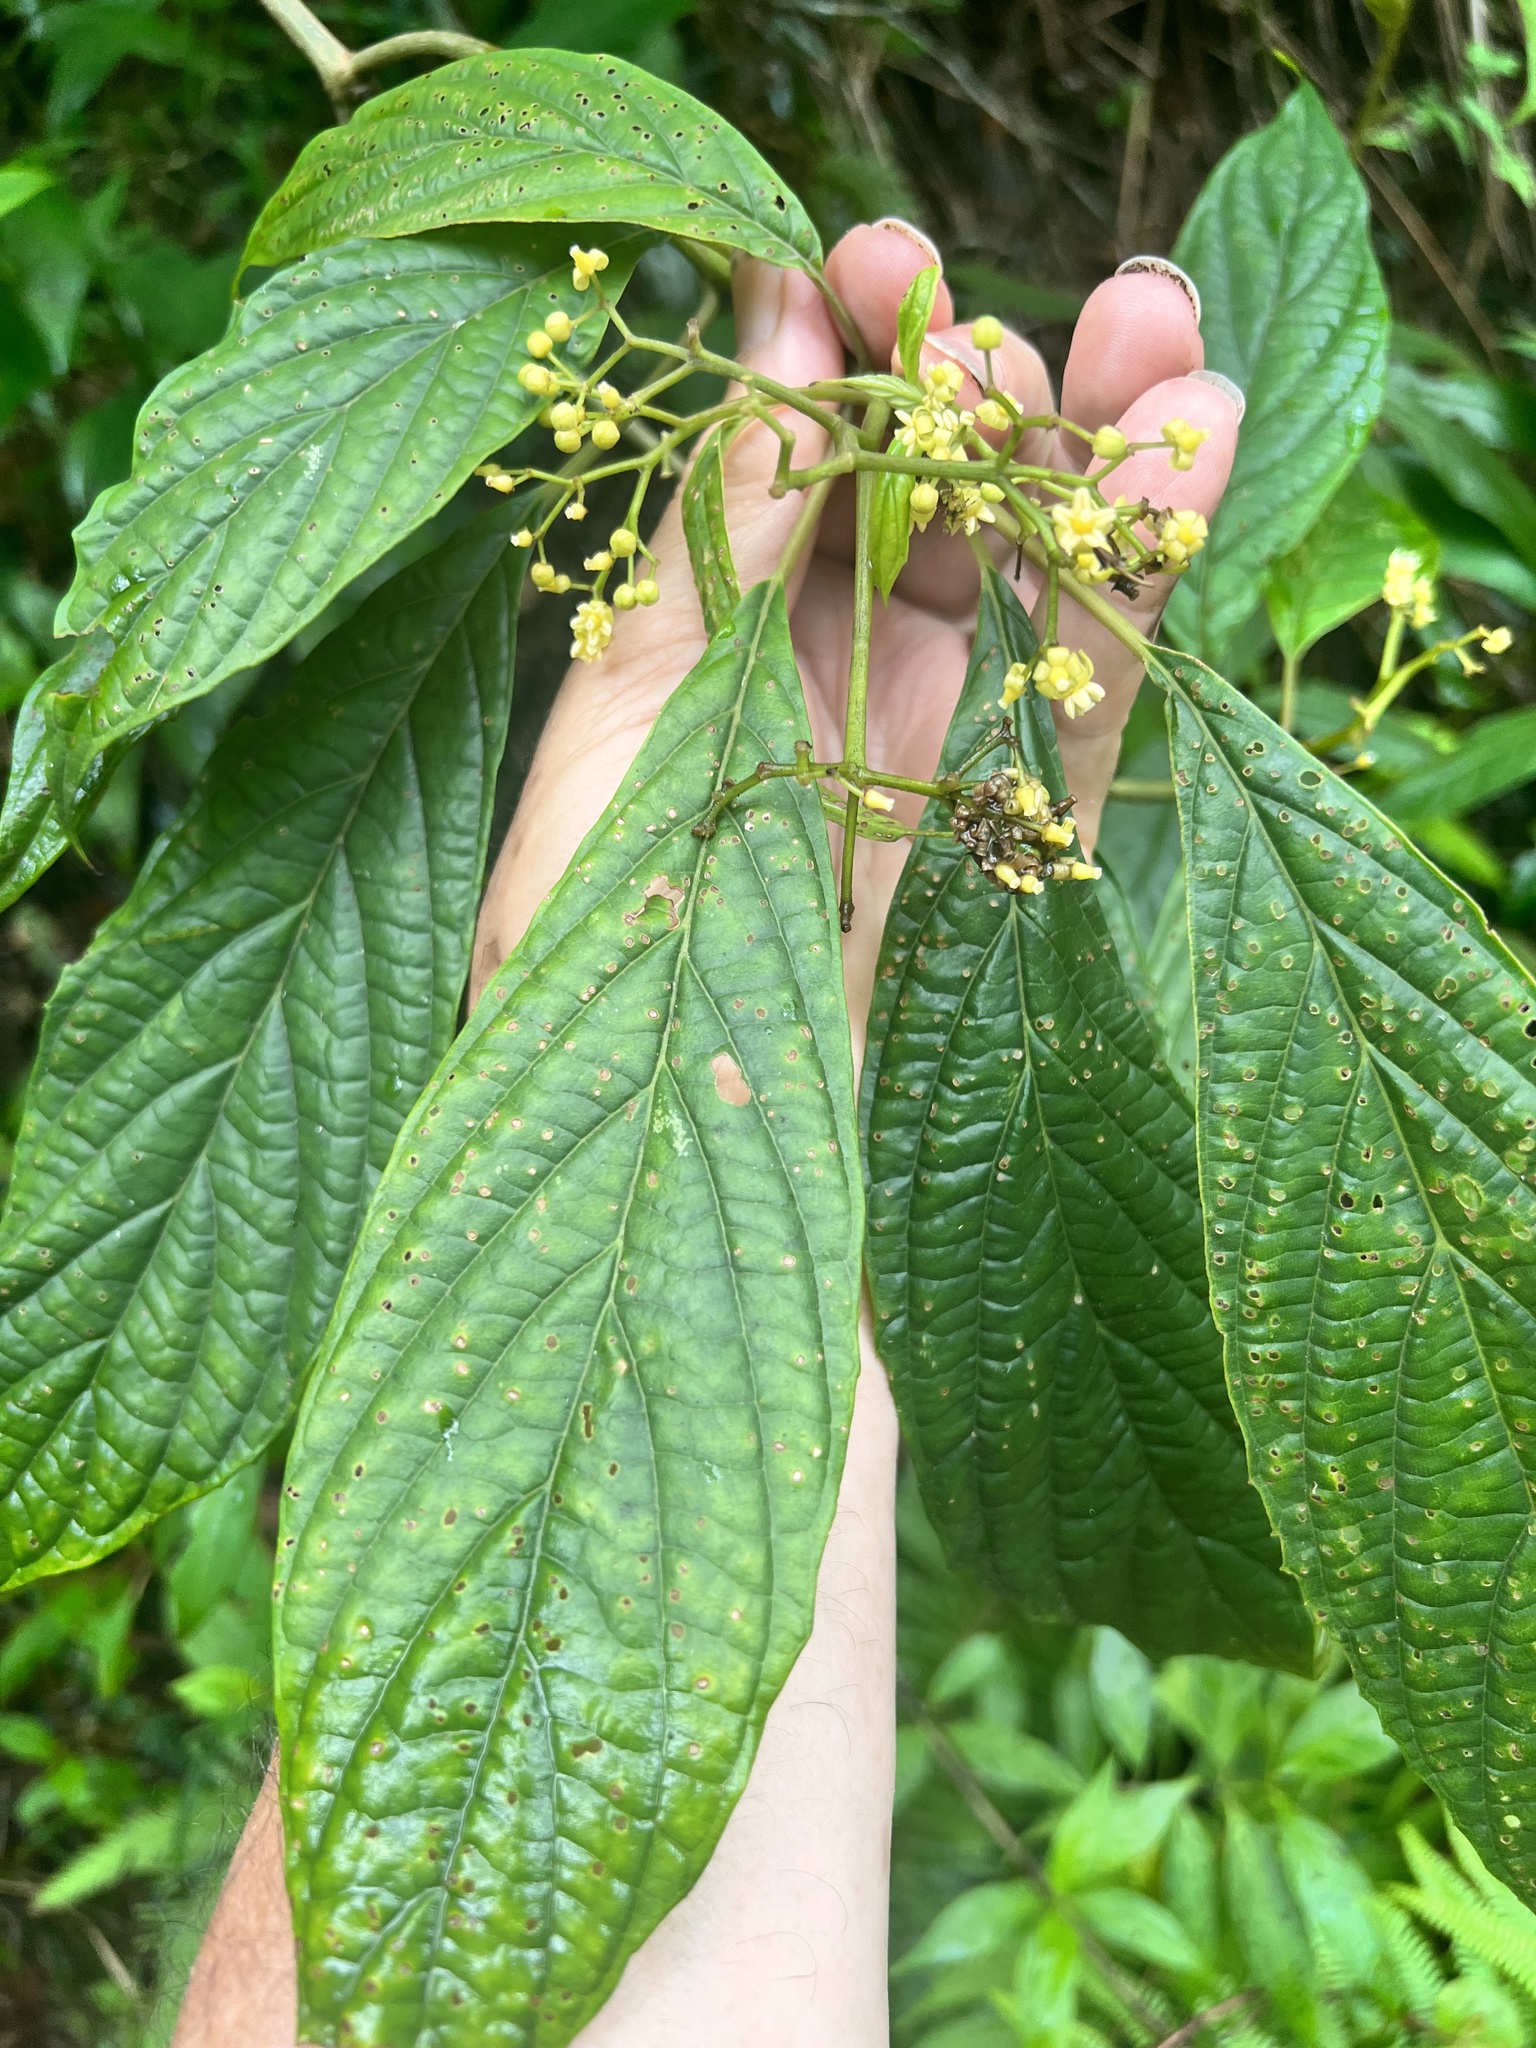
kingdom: Plantae
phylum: Tracheophyta
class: Magnoliopsida
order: Asterales
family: Rousseaceae
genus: Abrophyllum
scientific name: Abrophyllum ornans
